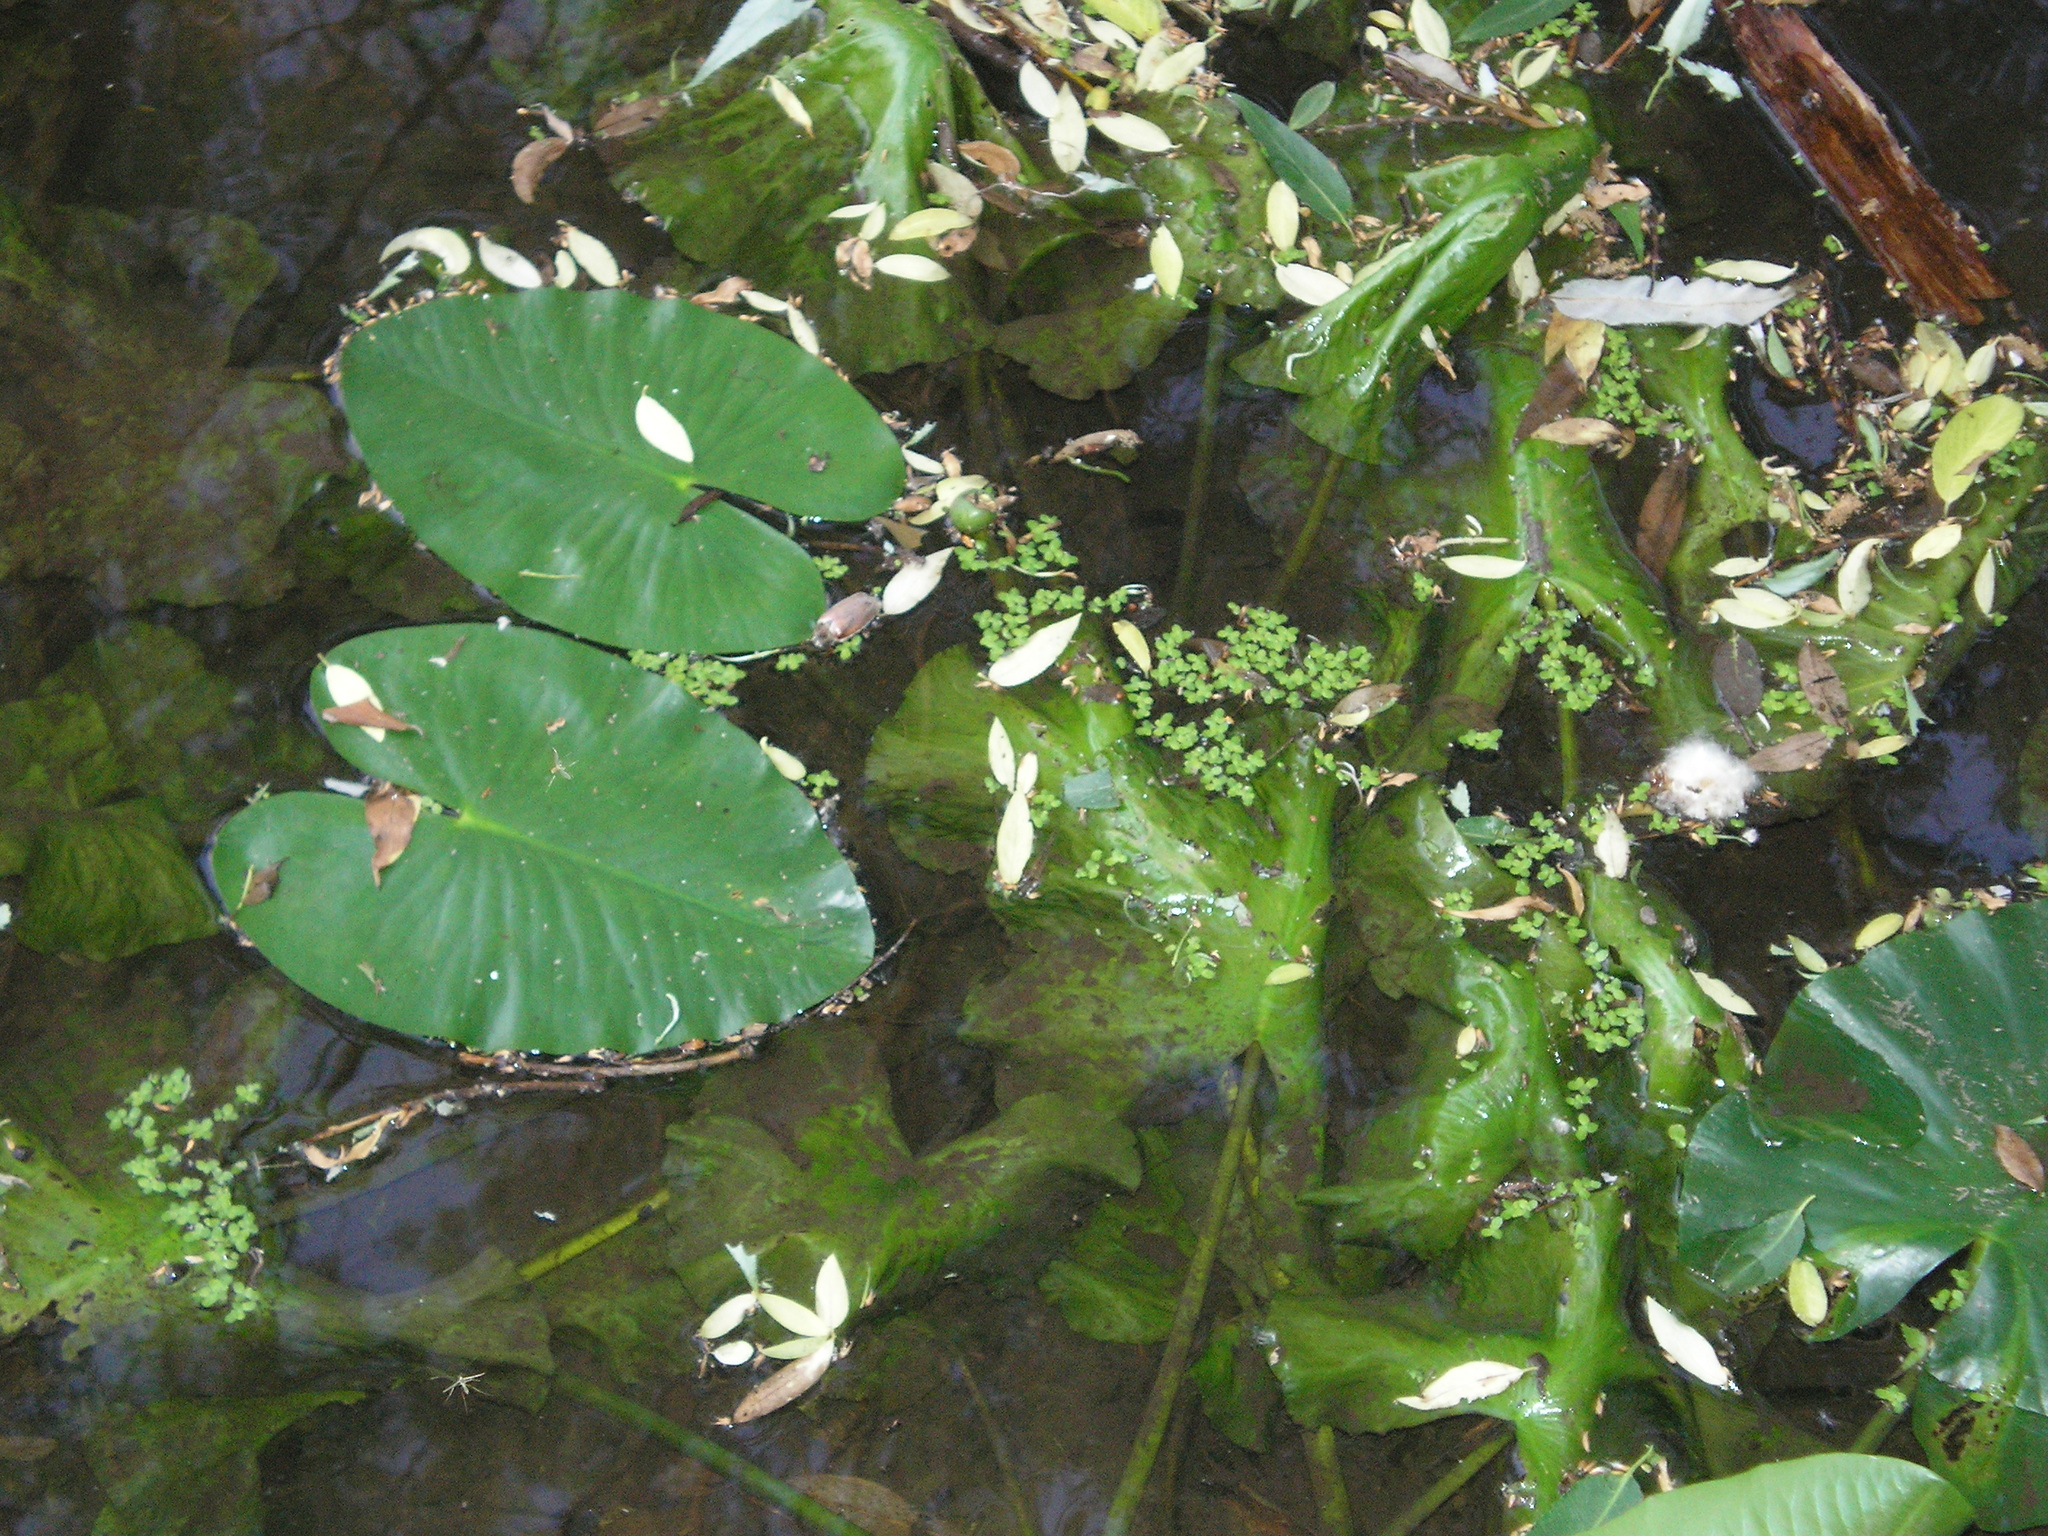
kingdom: Plantae
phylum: Tracheophyta
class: Magnoliopsida
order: Nymphaeales
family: Nymphaeaceae
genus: Nuphar
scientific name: Nuphar lutea
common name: Yellow water-lily
